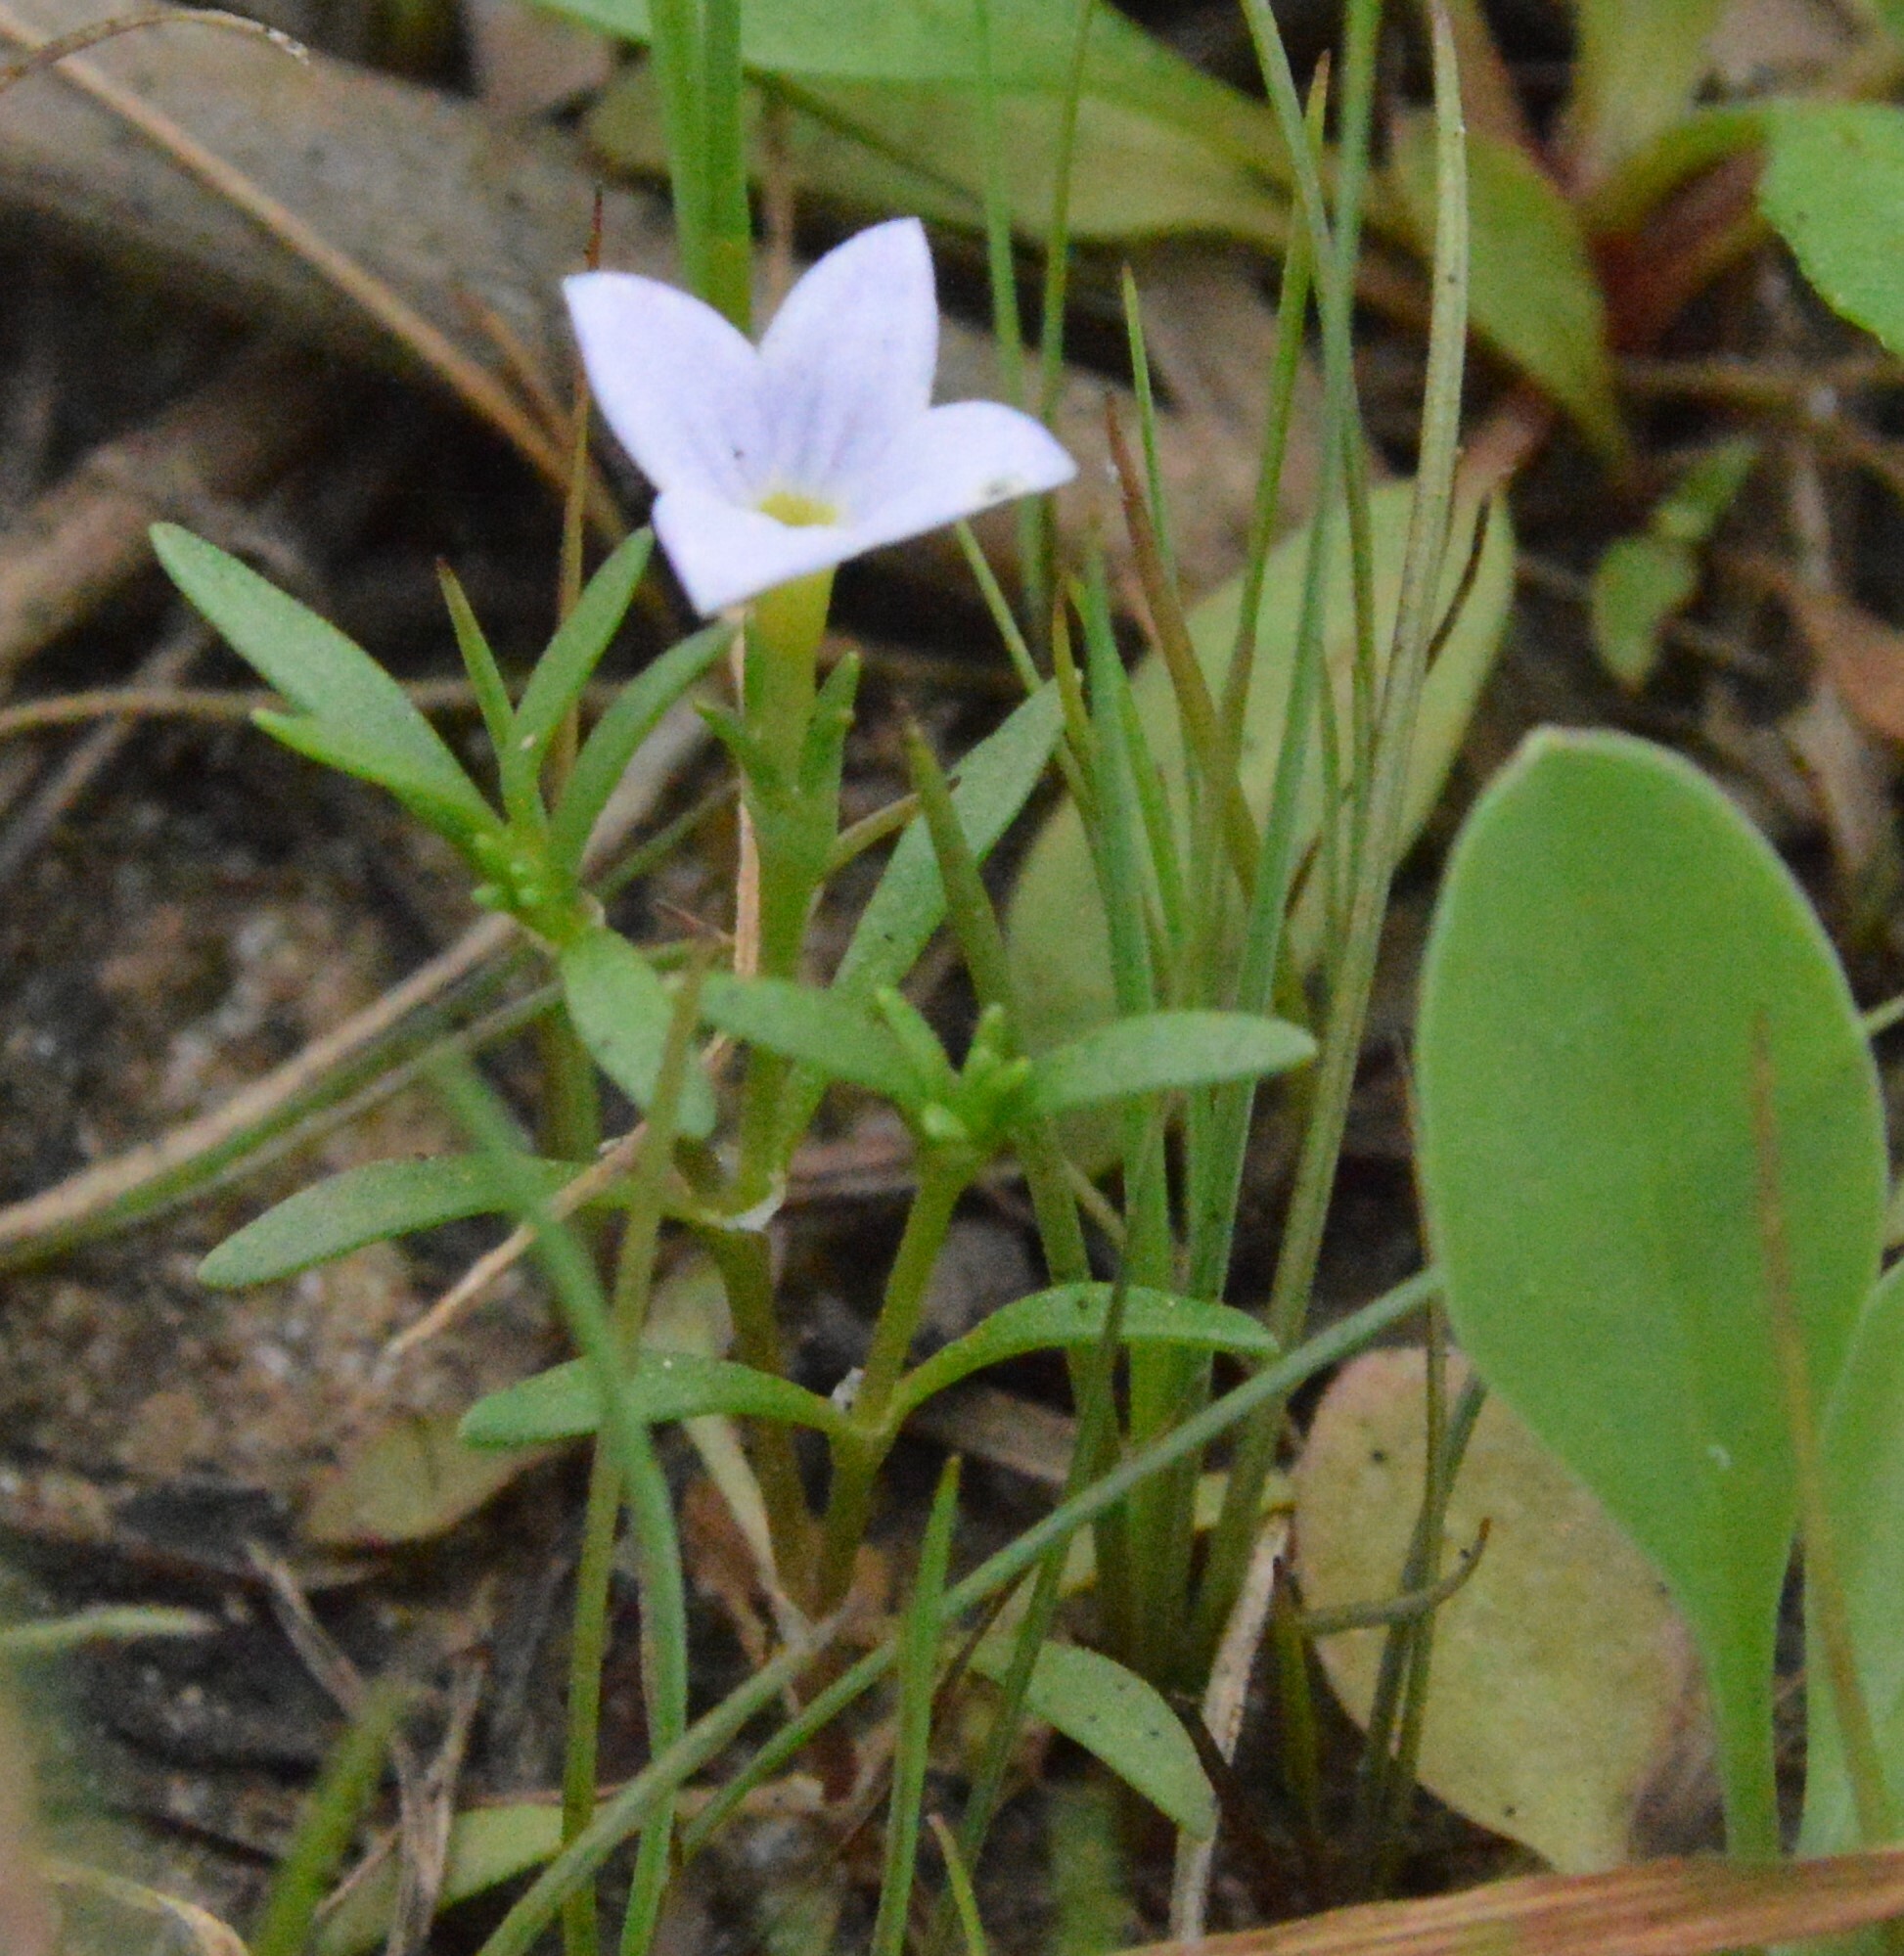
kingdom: Plantae
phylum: Tracheophyta
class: Magnoliopsida
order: Gentianales
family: Rubiaceae
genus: Houstonia
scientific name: Houstonia rosea
